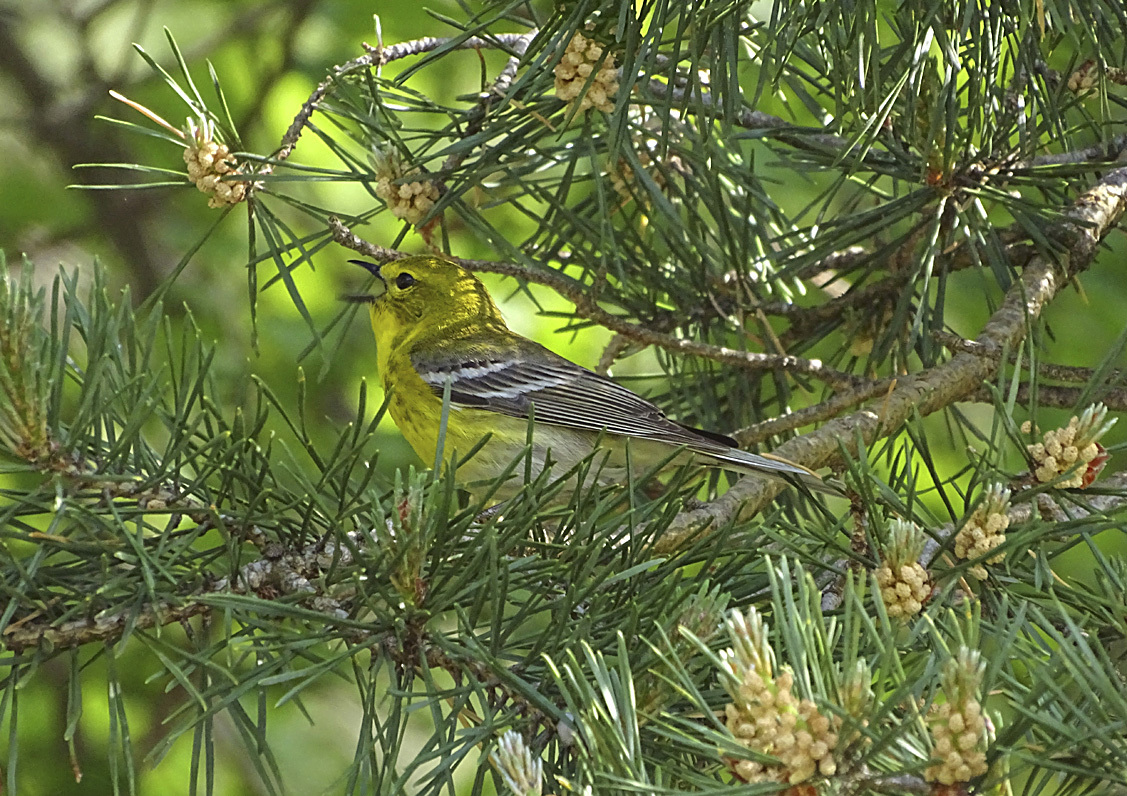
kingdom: Animalia
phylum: Chordata
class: Aves
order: Passeriformes
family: Parulidae
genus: Setophaga
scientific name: Setophaga pinus
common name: Pine warbler
